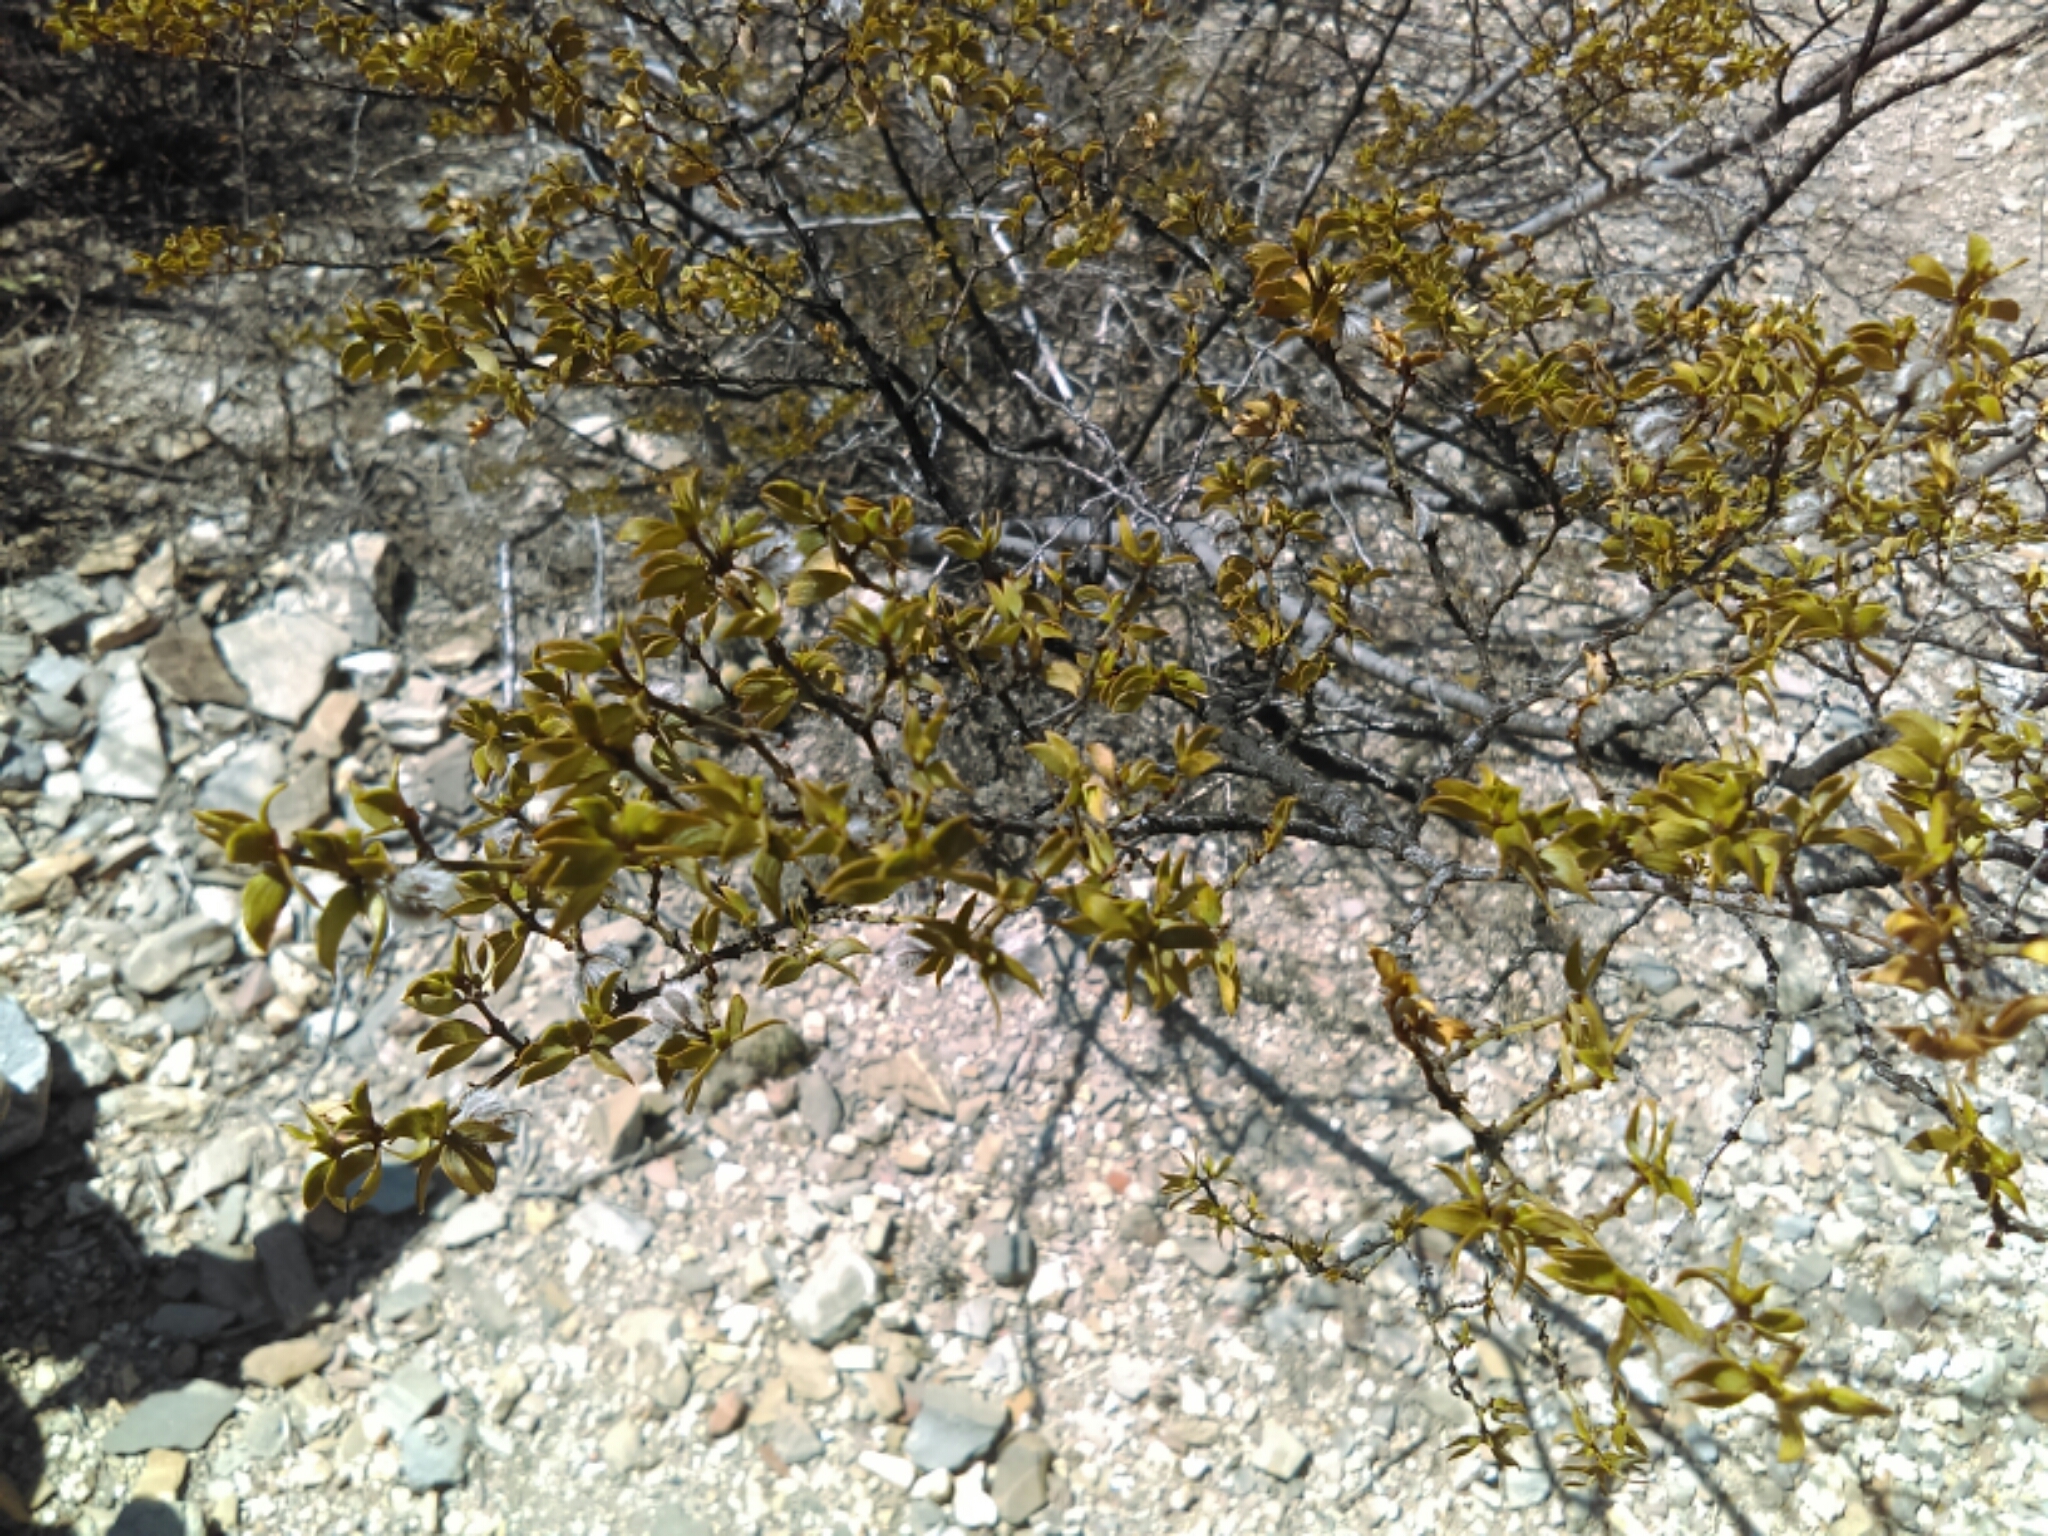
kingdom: Plantae
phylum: Tracheophyta
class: Magnoliopsida
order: Zygophyllales
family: Zygophyllaceae
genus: Larrea
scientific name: Larrea tridentata
